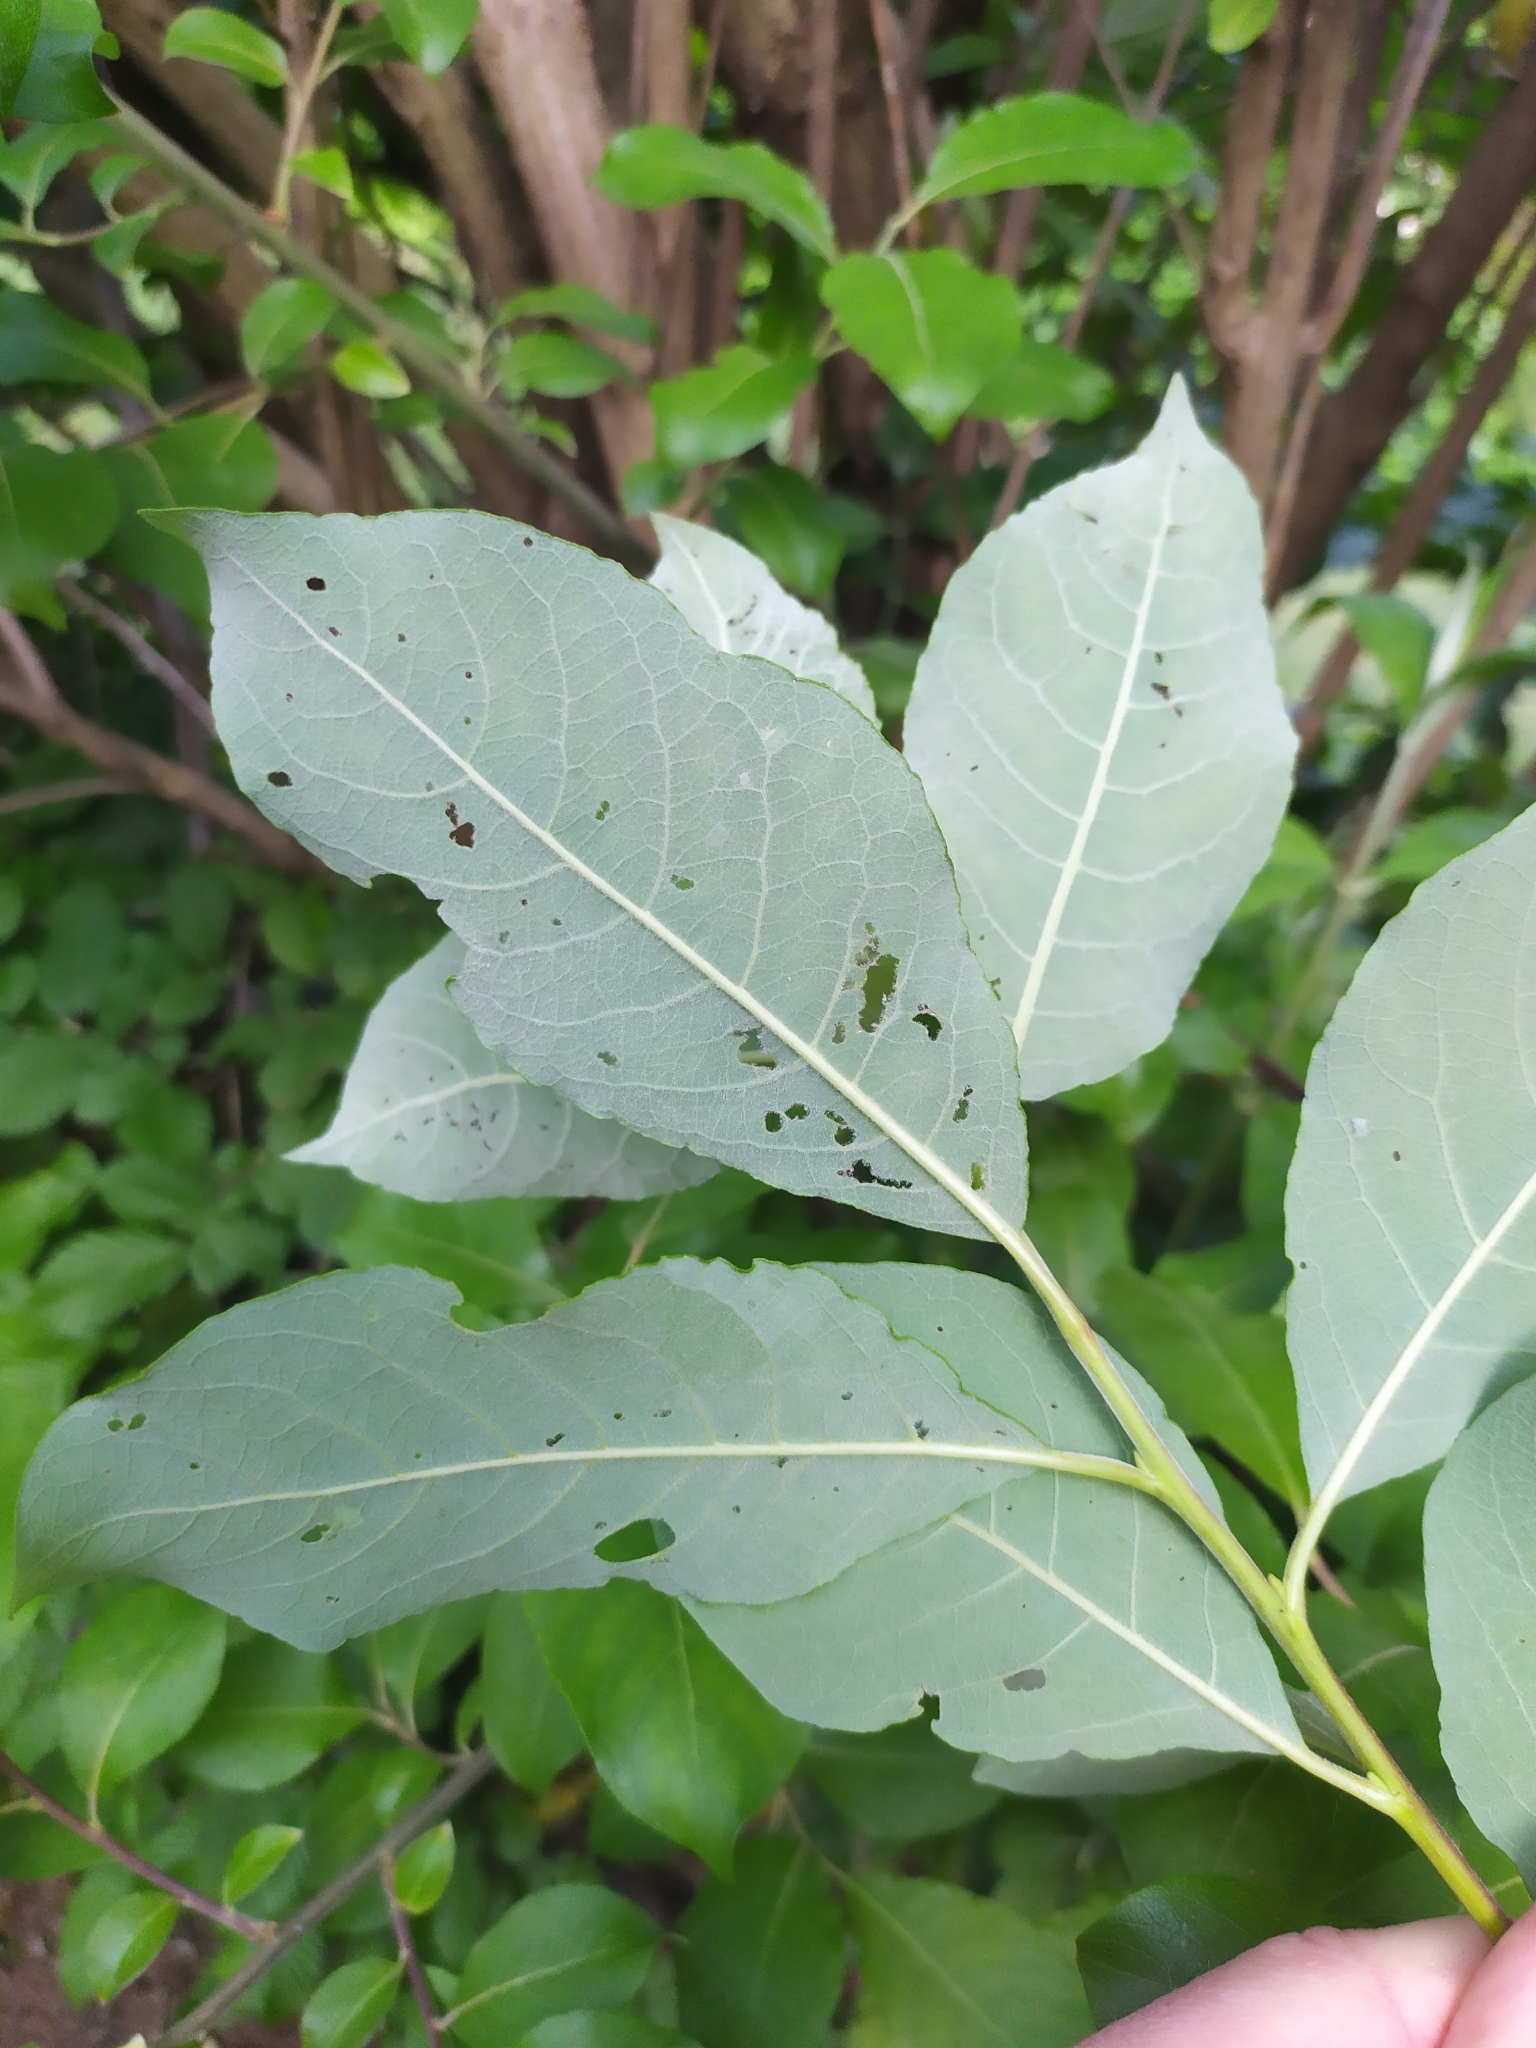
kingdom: Plantae
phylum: Tracheophyta
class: Magnoliopsida
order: Malpighiales
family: Salicaceae
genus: Salix
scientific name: Salix caprea
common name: Goat willow
